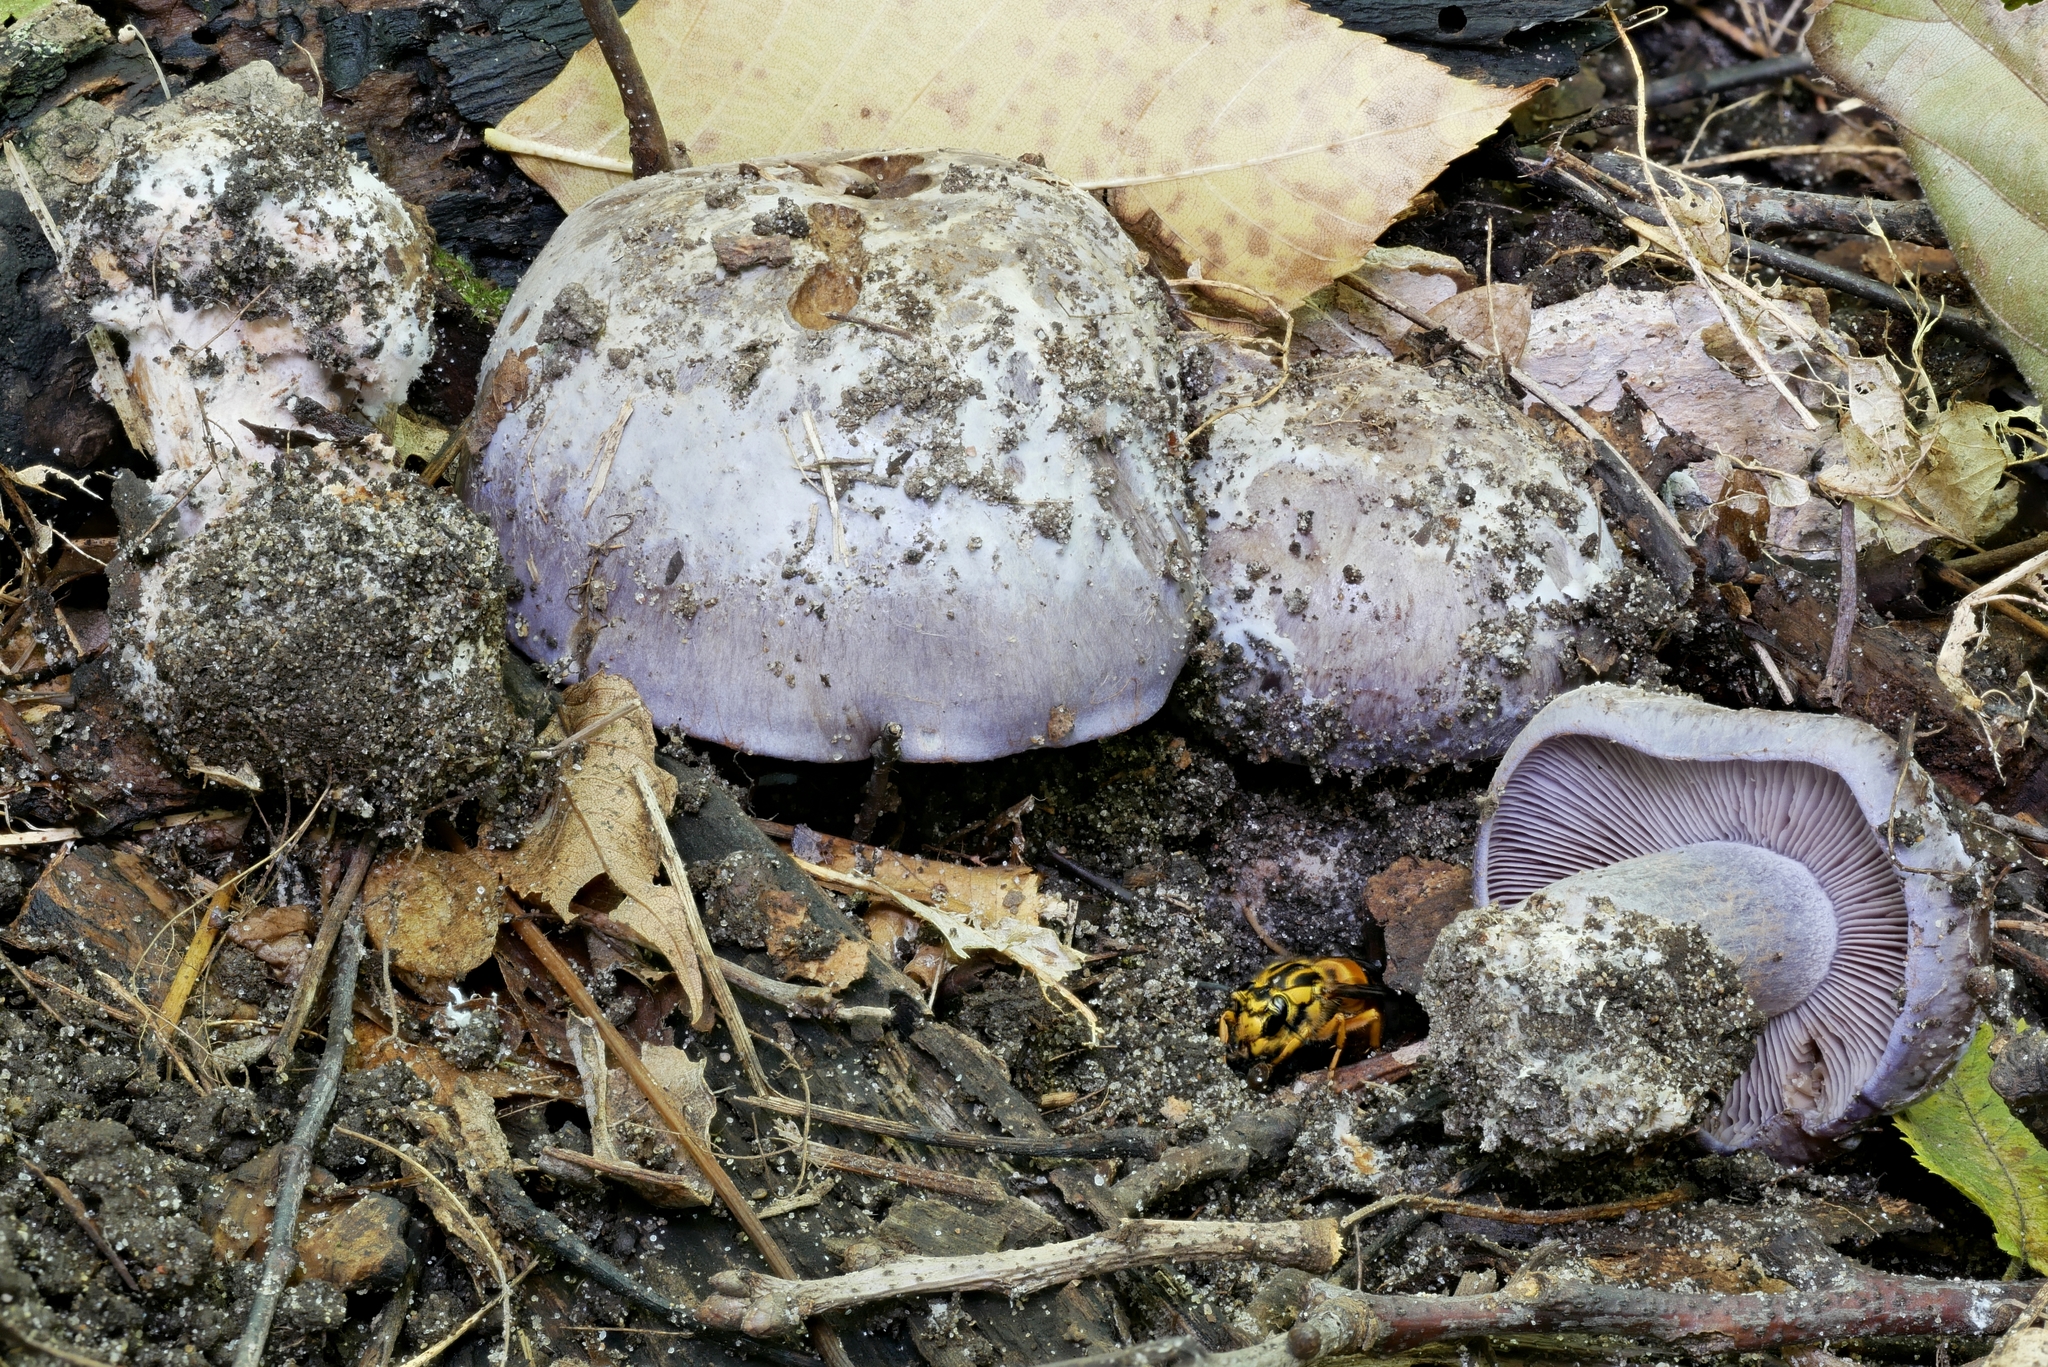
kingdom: Fungi
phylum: Basidiomycota
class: Agaricomycetes
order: Agaricales
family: Cortinariaceae
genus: Phlegmacium
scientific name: Phlegmacium luhmannii
